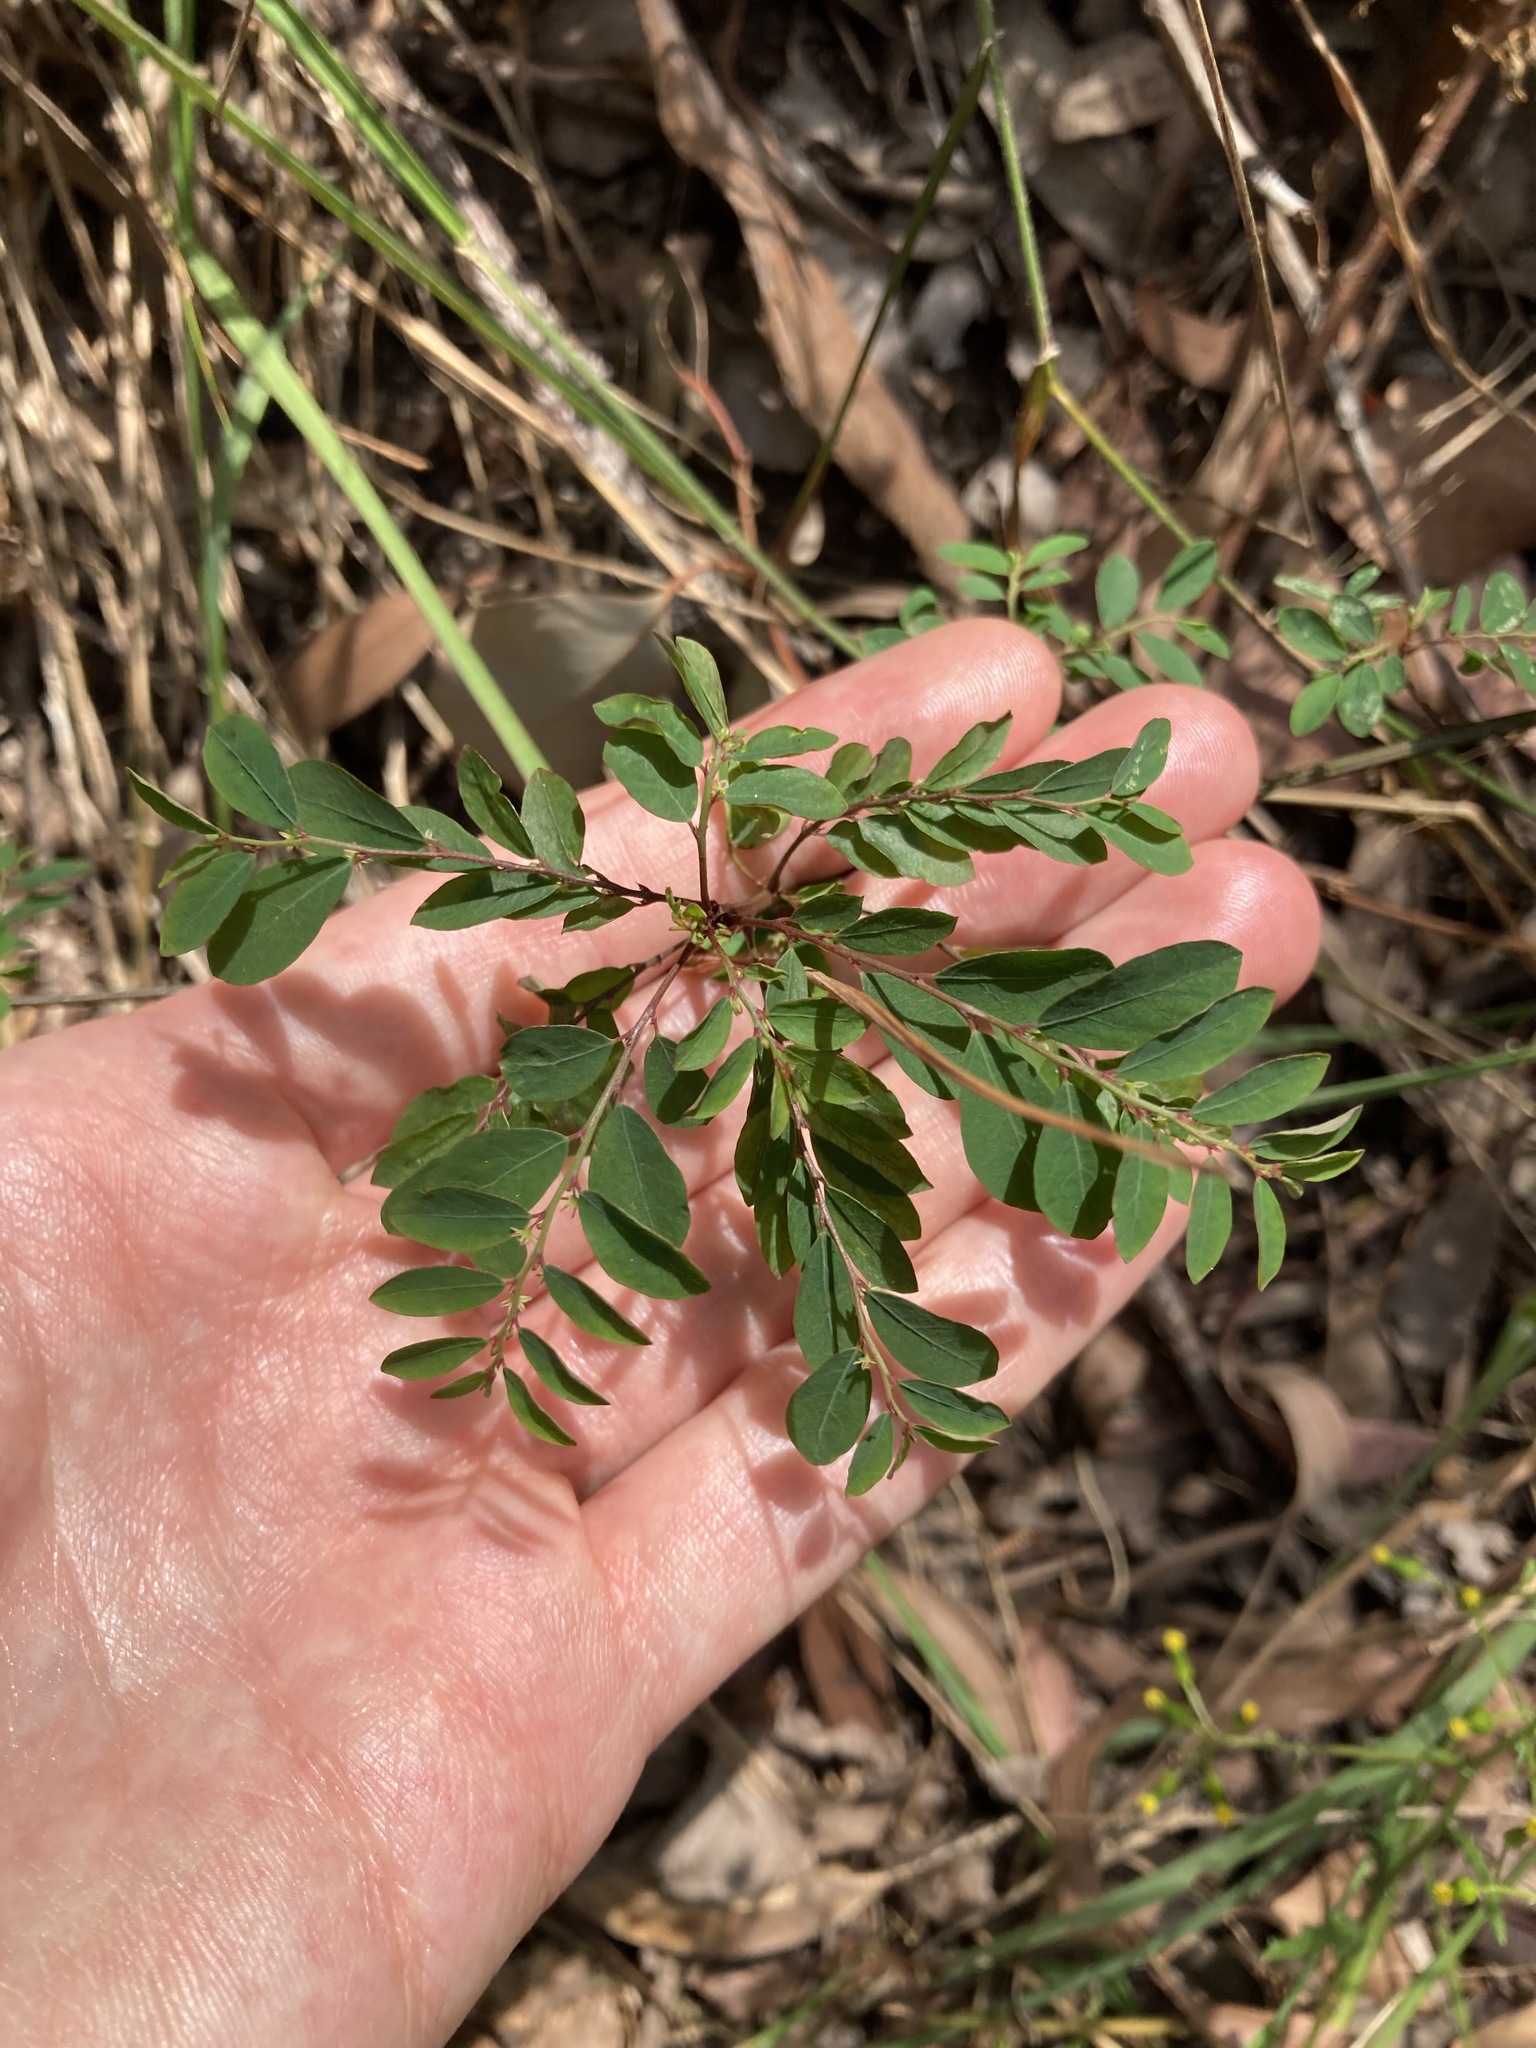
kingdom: Plantae
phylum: Tracheophyta
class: Magnoliopsida
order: Malpighiales
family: Phyllanthaceae
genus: Phyllanthus
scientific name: Phyllanthus tenellus
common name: Mascarene island leaf-flower
